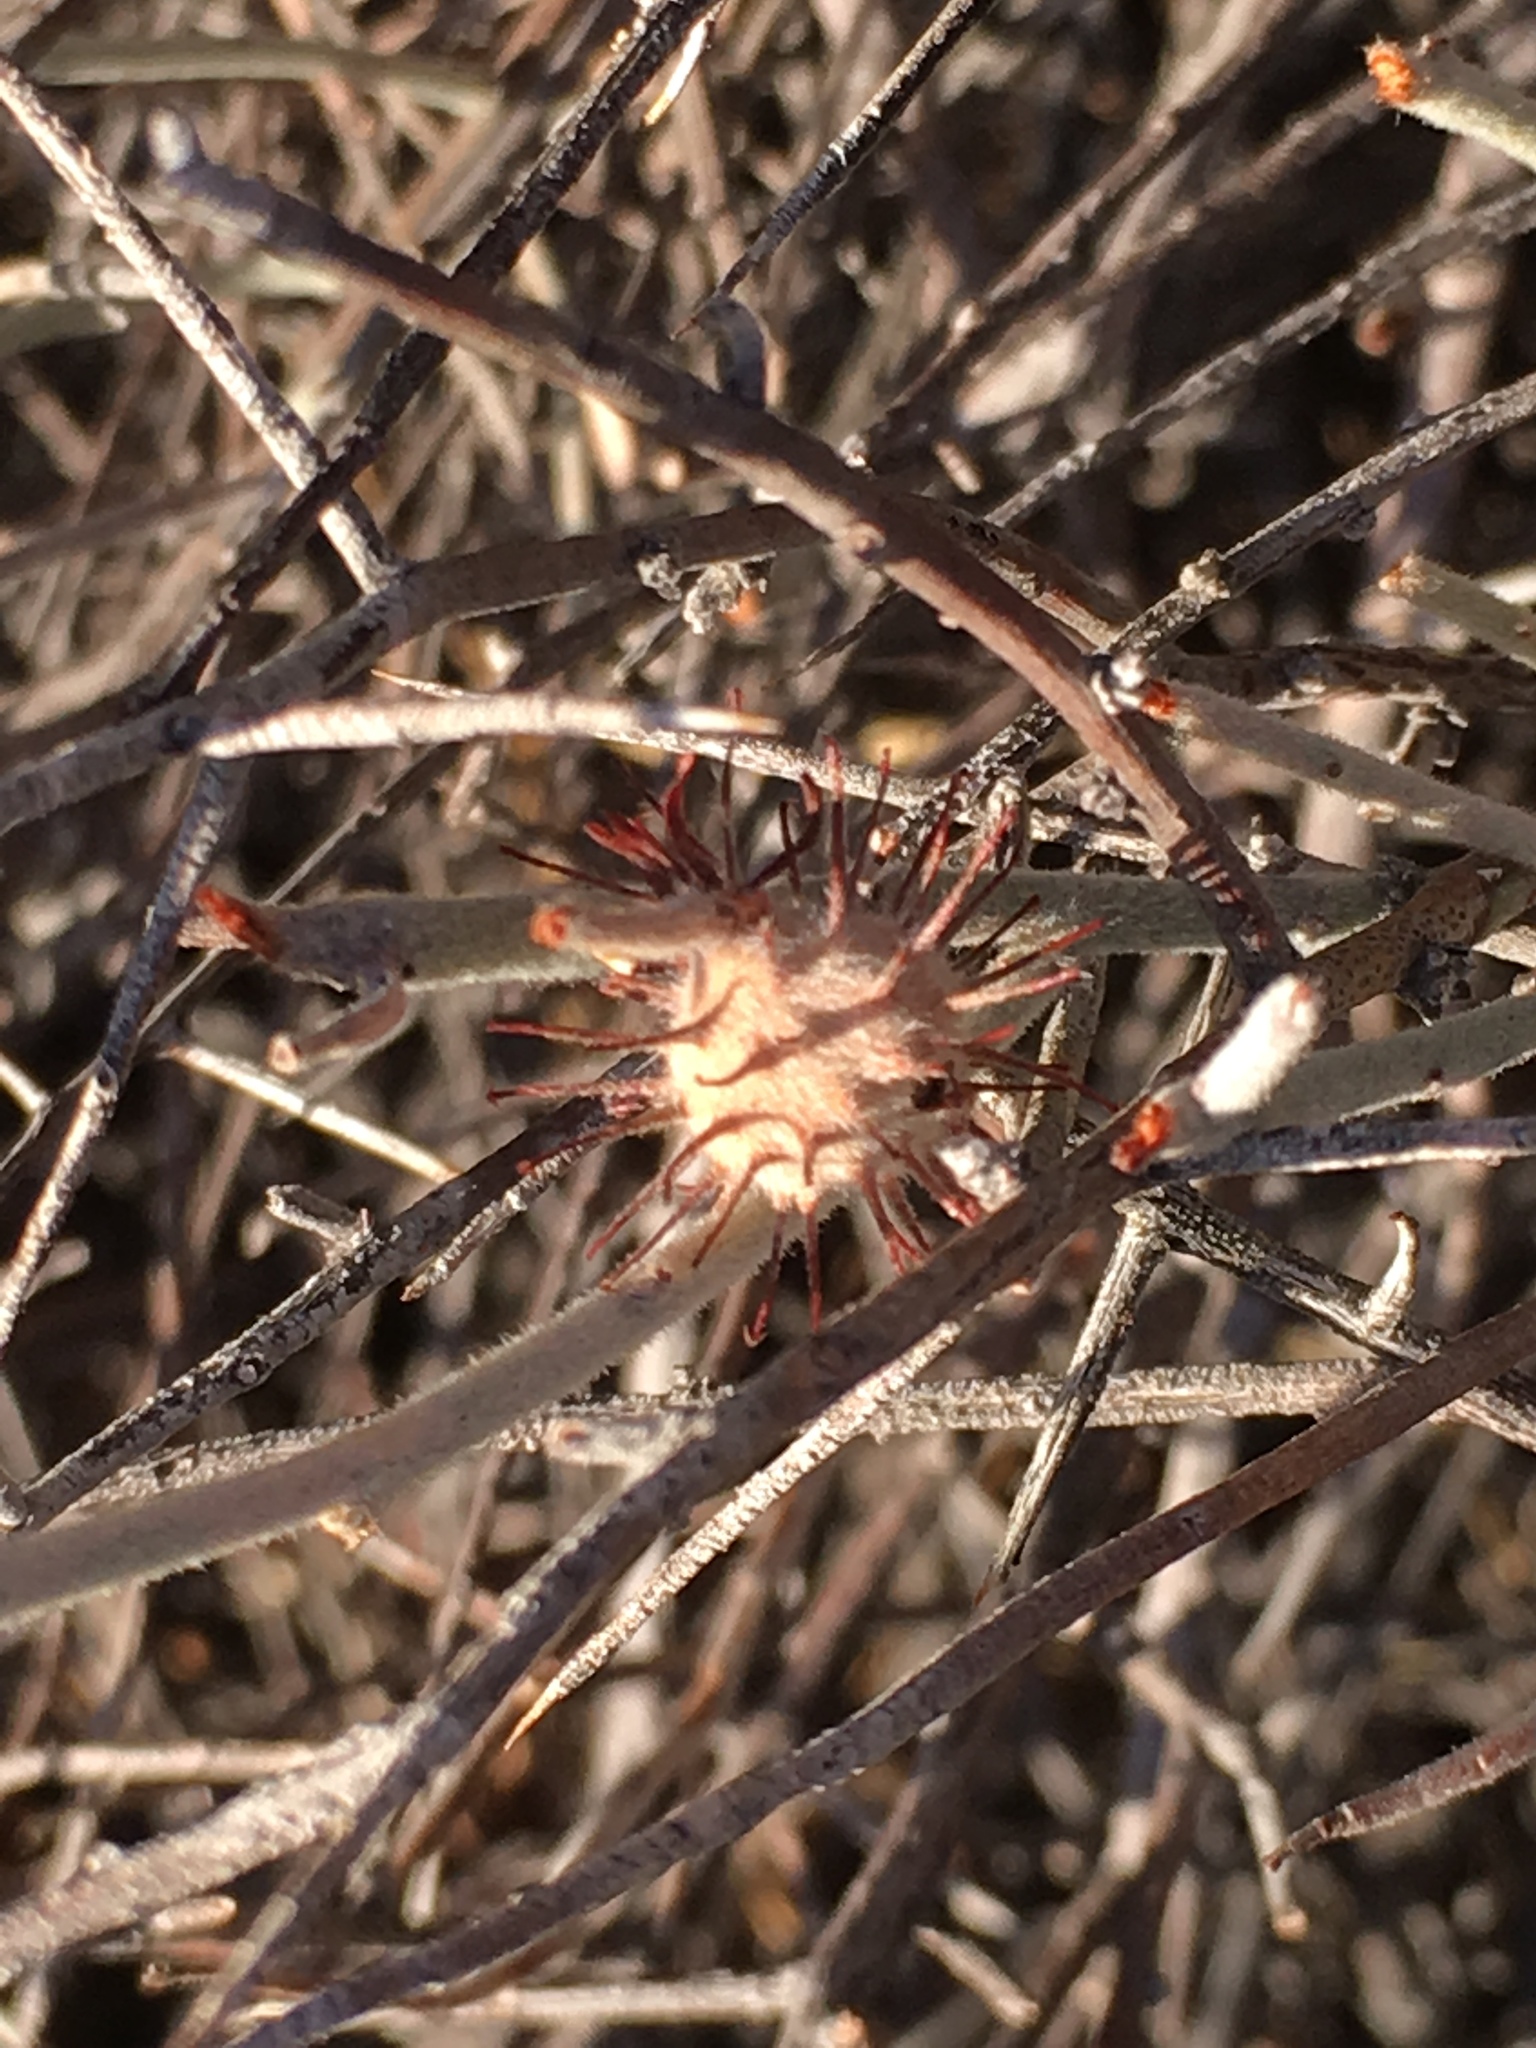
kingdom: Plantae
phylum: Tracheophyta
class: Magnoliopsida
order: Zygophyllales
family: Krameriaceae
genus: Krameria
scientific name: Krameria bicolor
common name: White ratany
